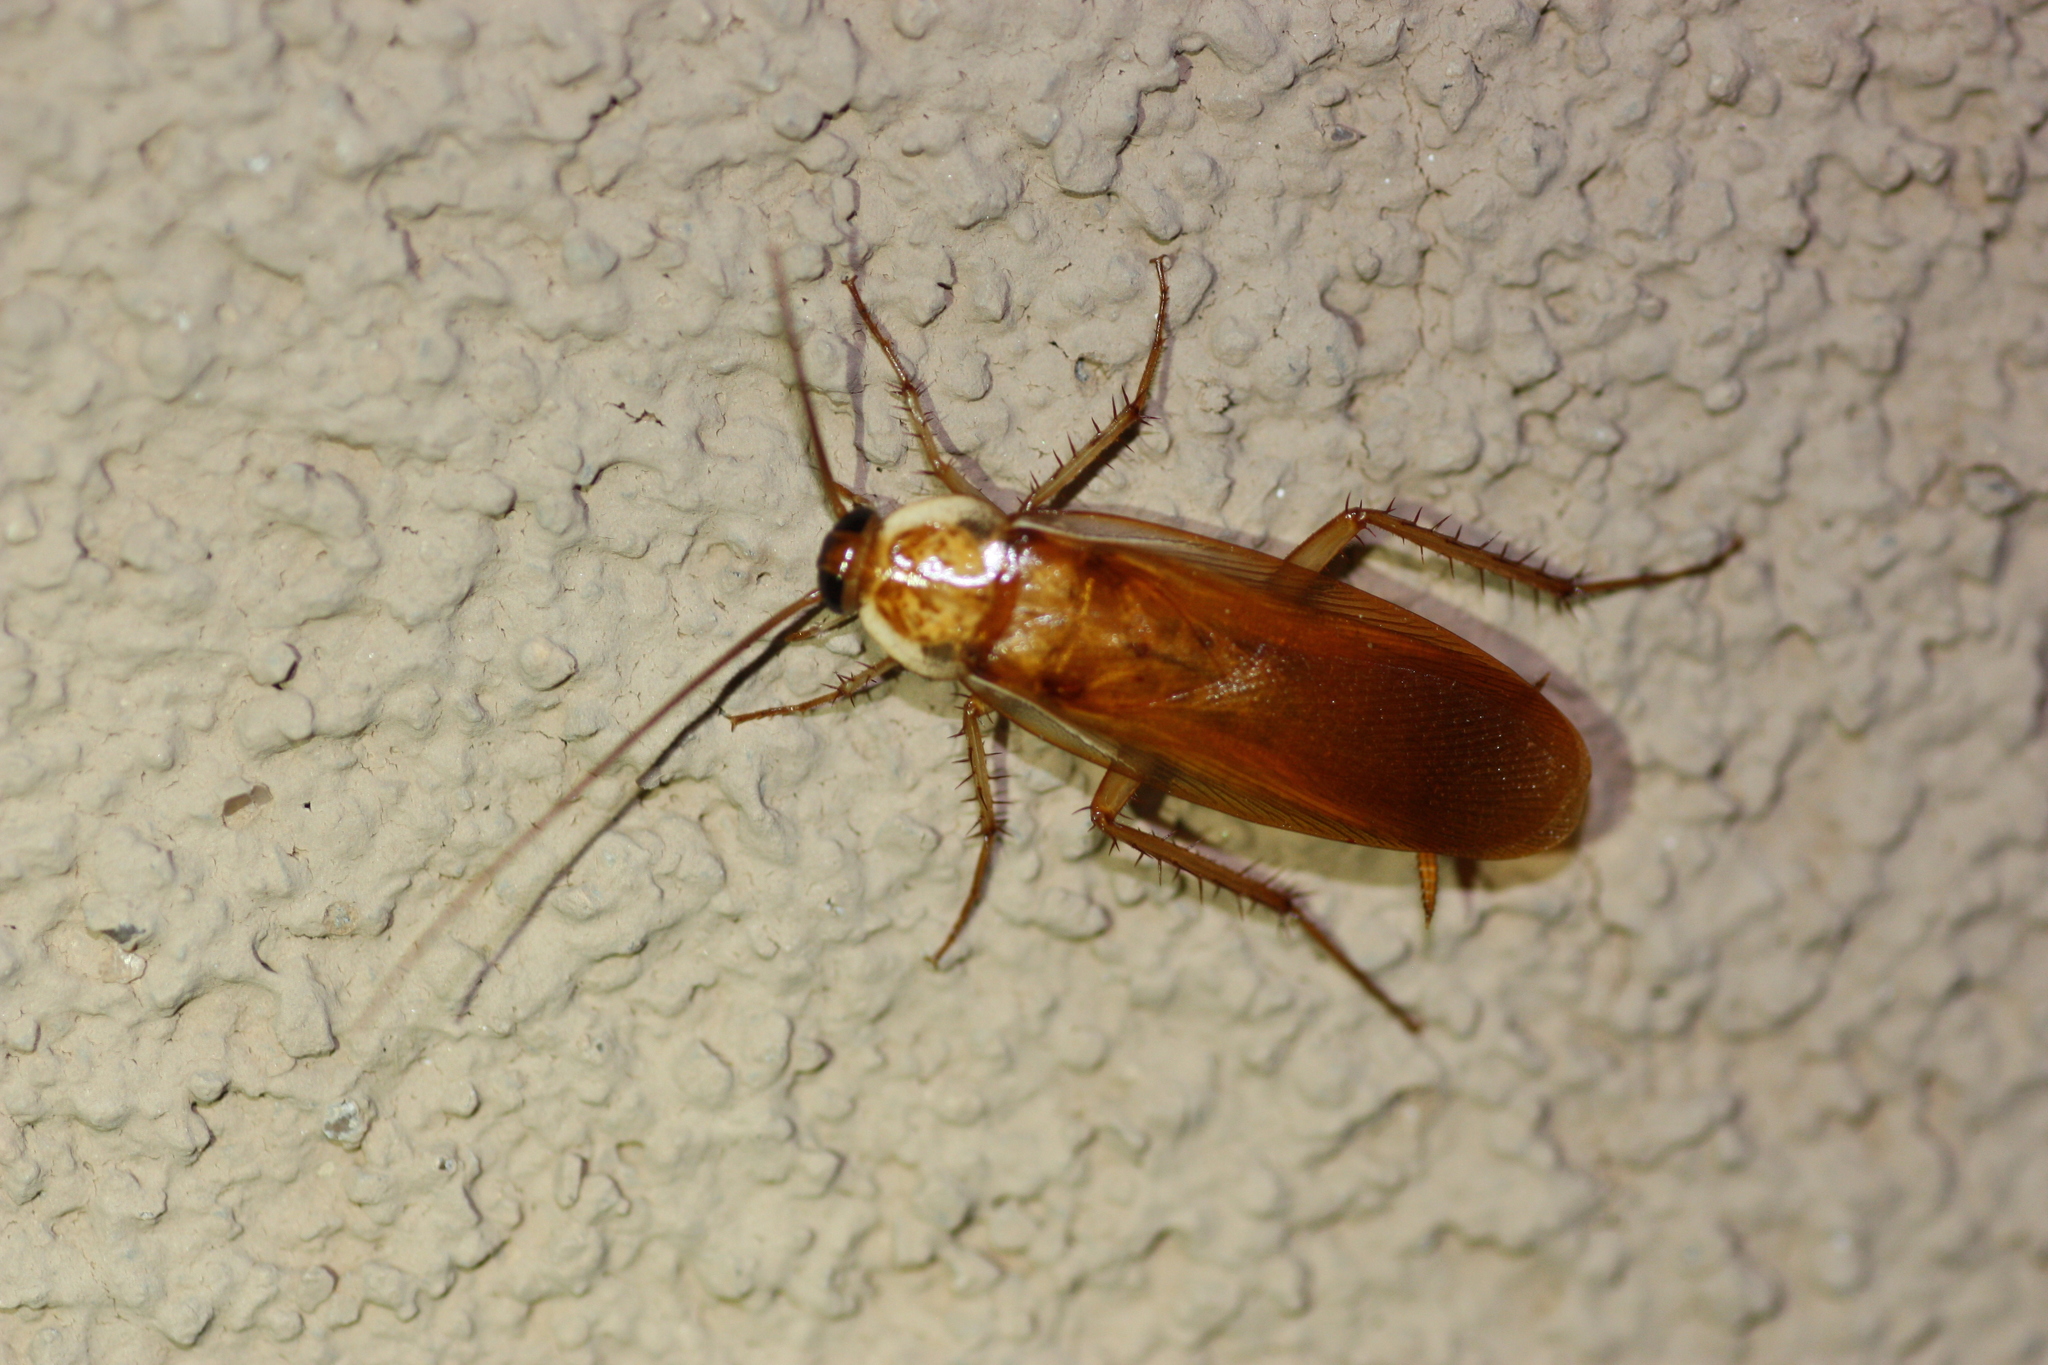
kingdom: Animalia
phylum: Arthropoda
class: Insecta
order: Blattodea
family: Blattidae
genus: Periplaneta
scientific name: Periplaneta lateralis
